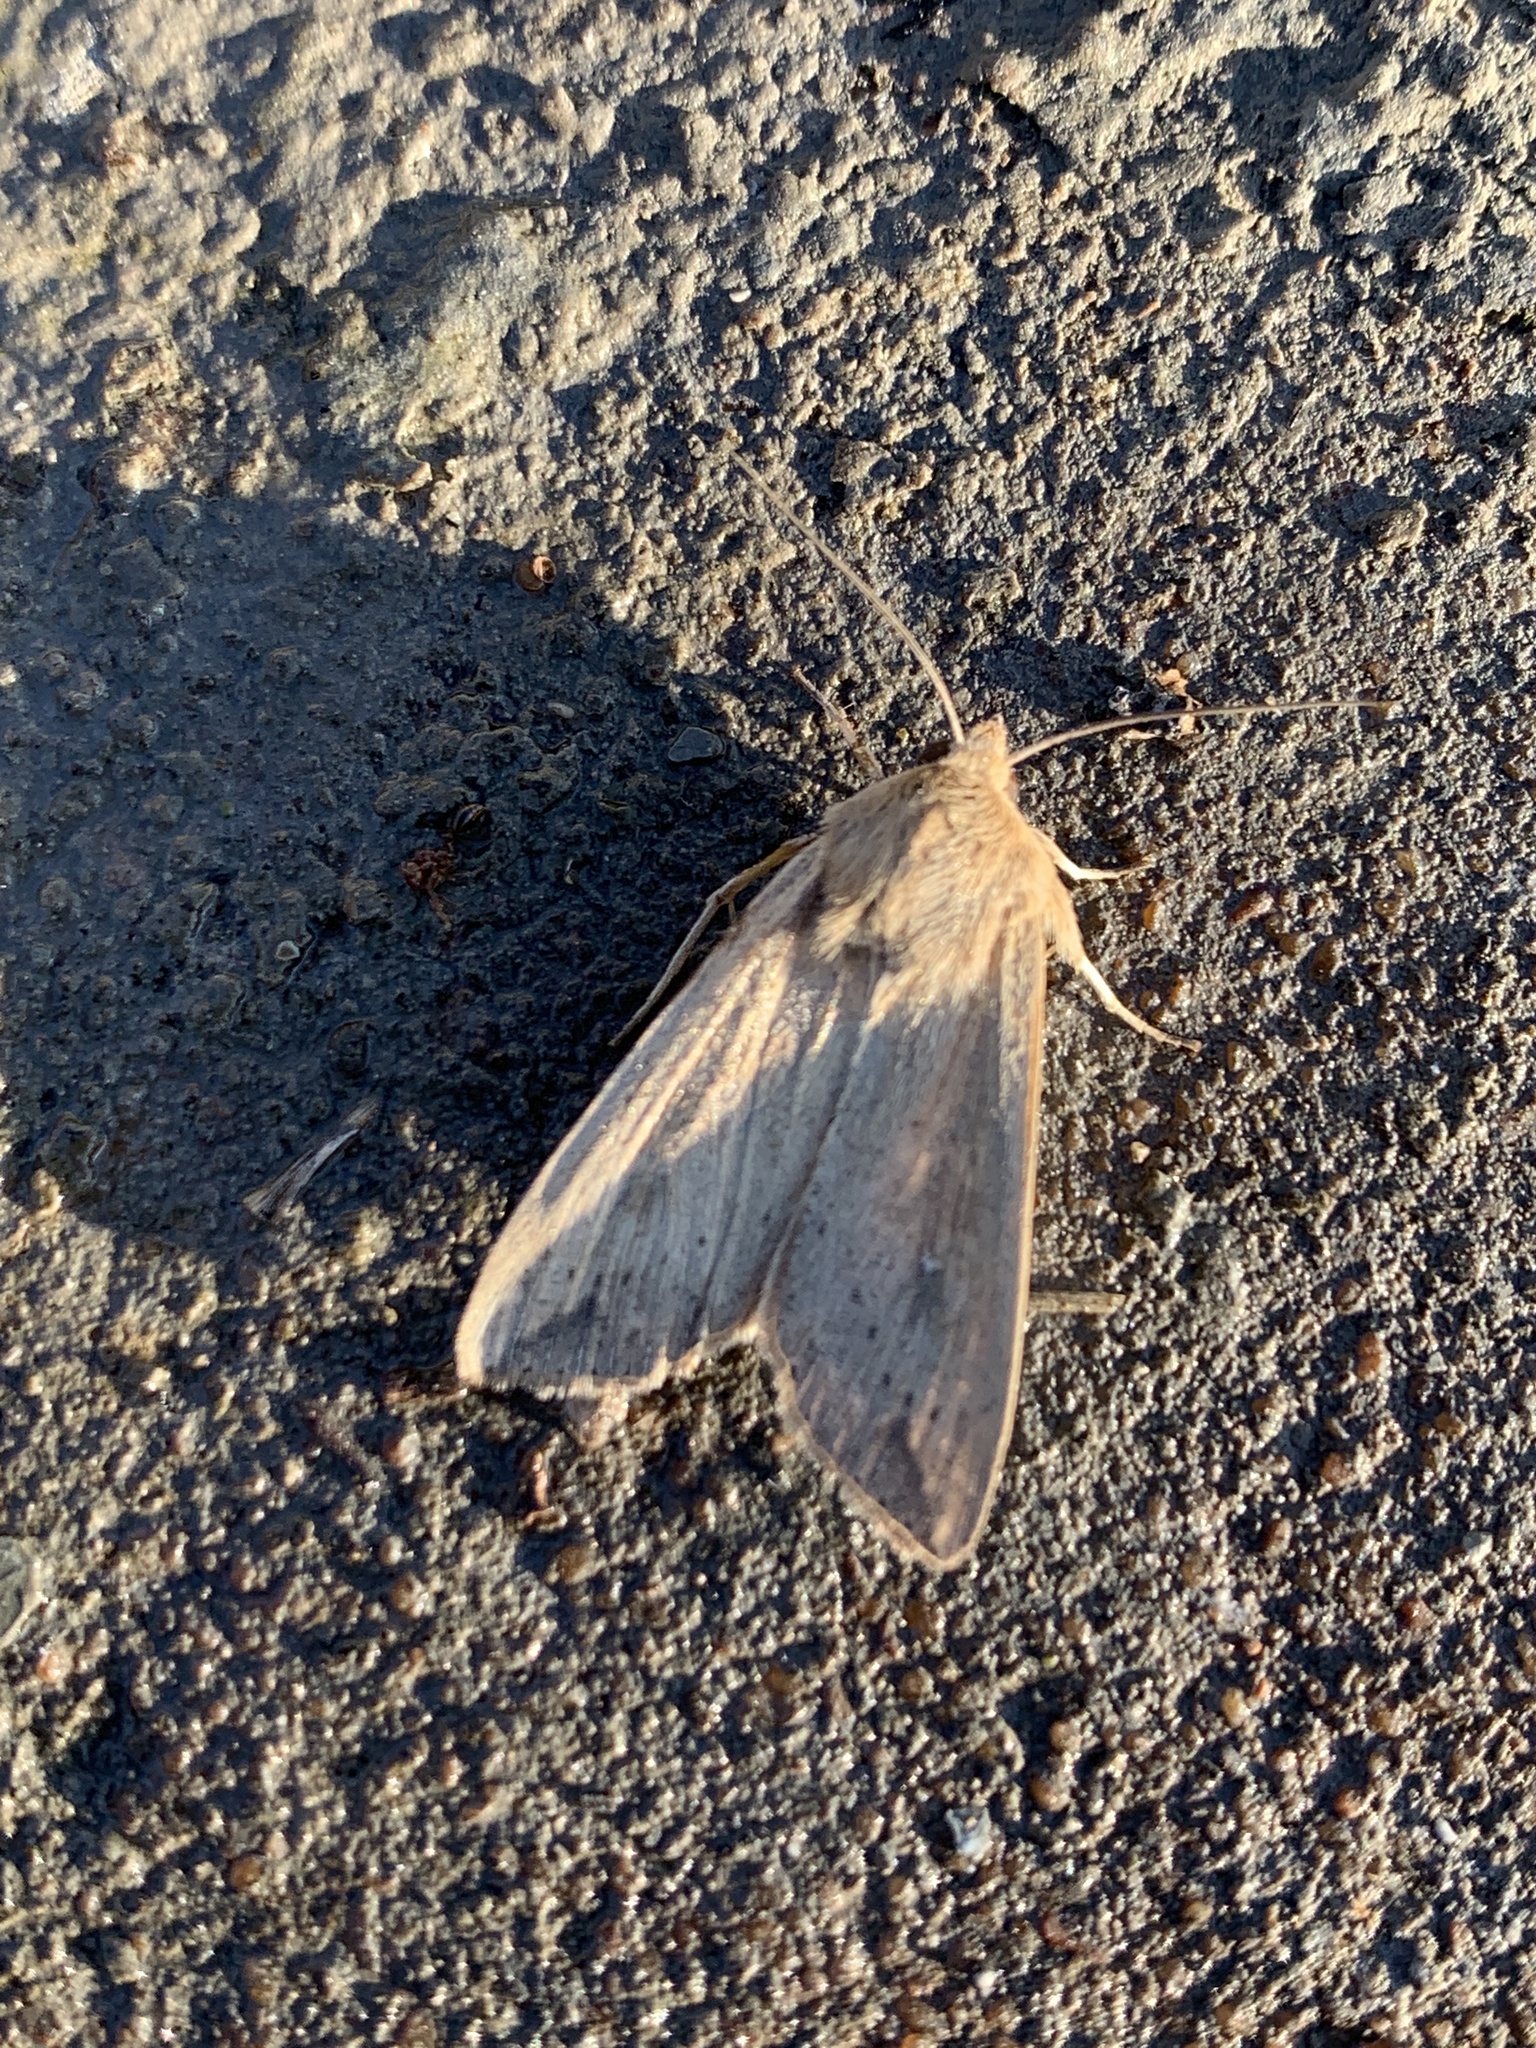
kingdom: Animalia
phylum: Arthropoda
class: Insecta
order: Lepidoptera
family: Noctuidae
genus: Mythimna
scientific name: Mythimna unipuncta
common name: White-speck
